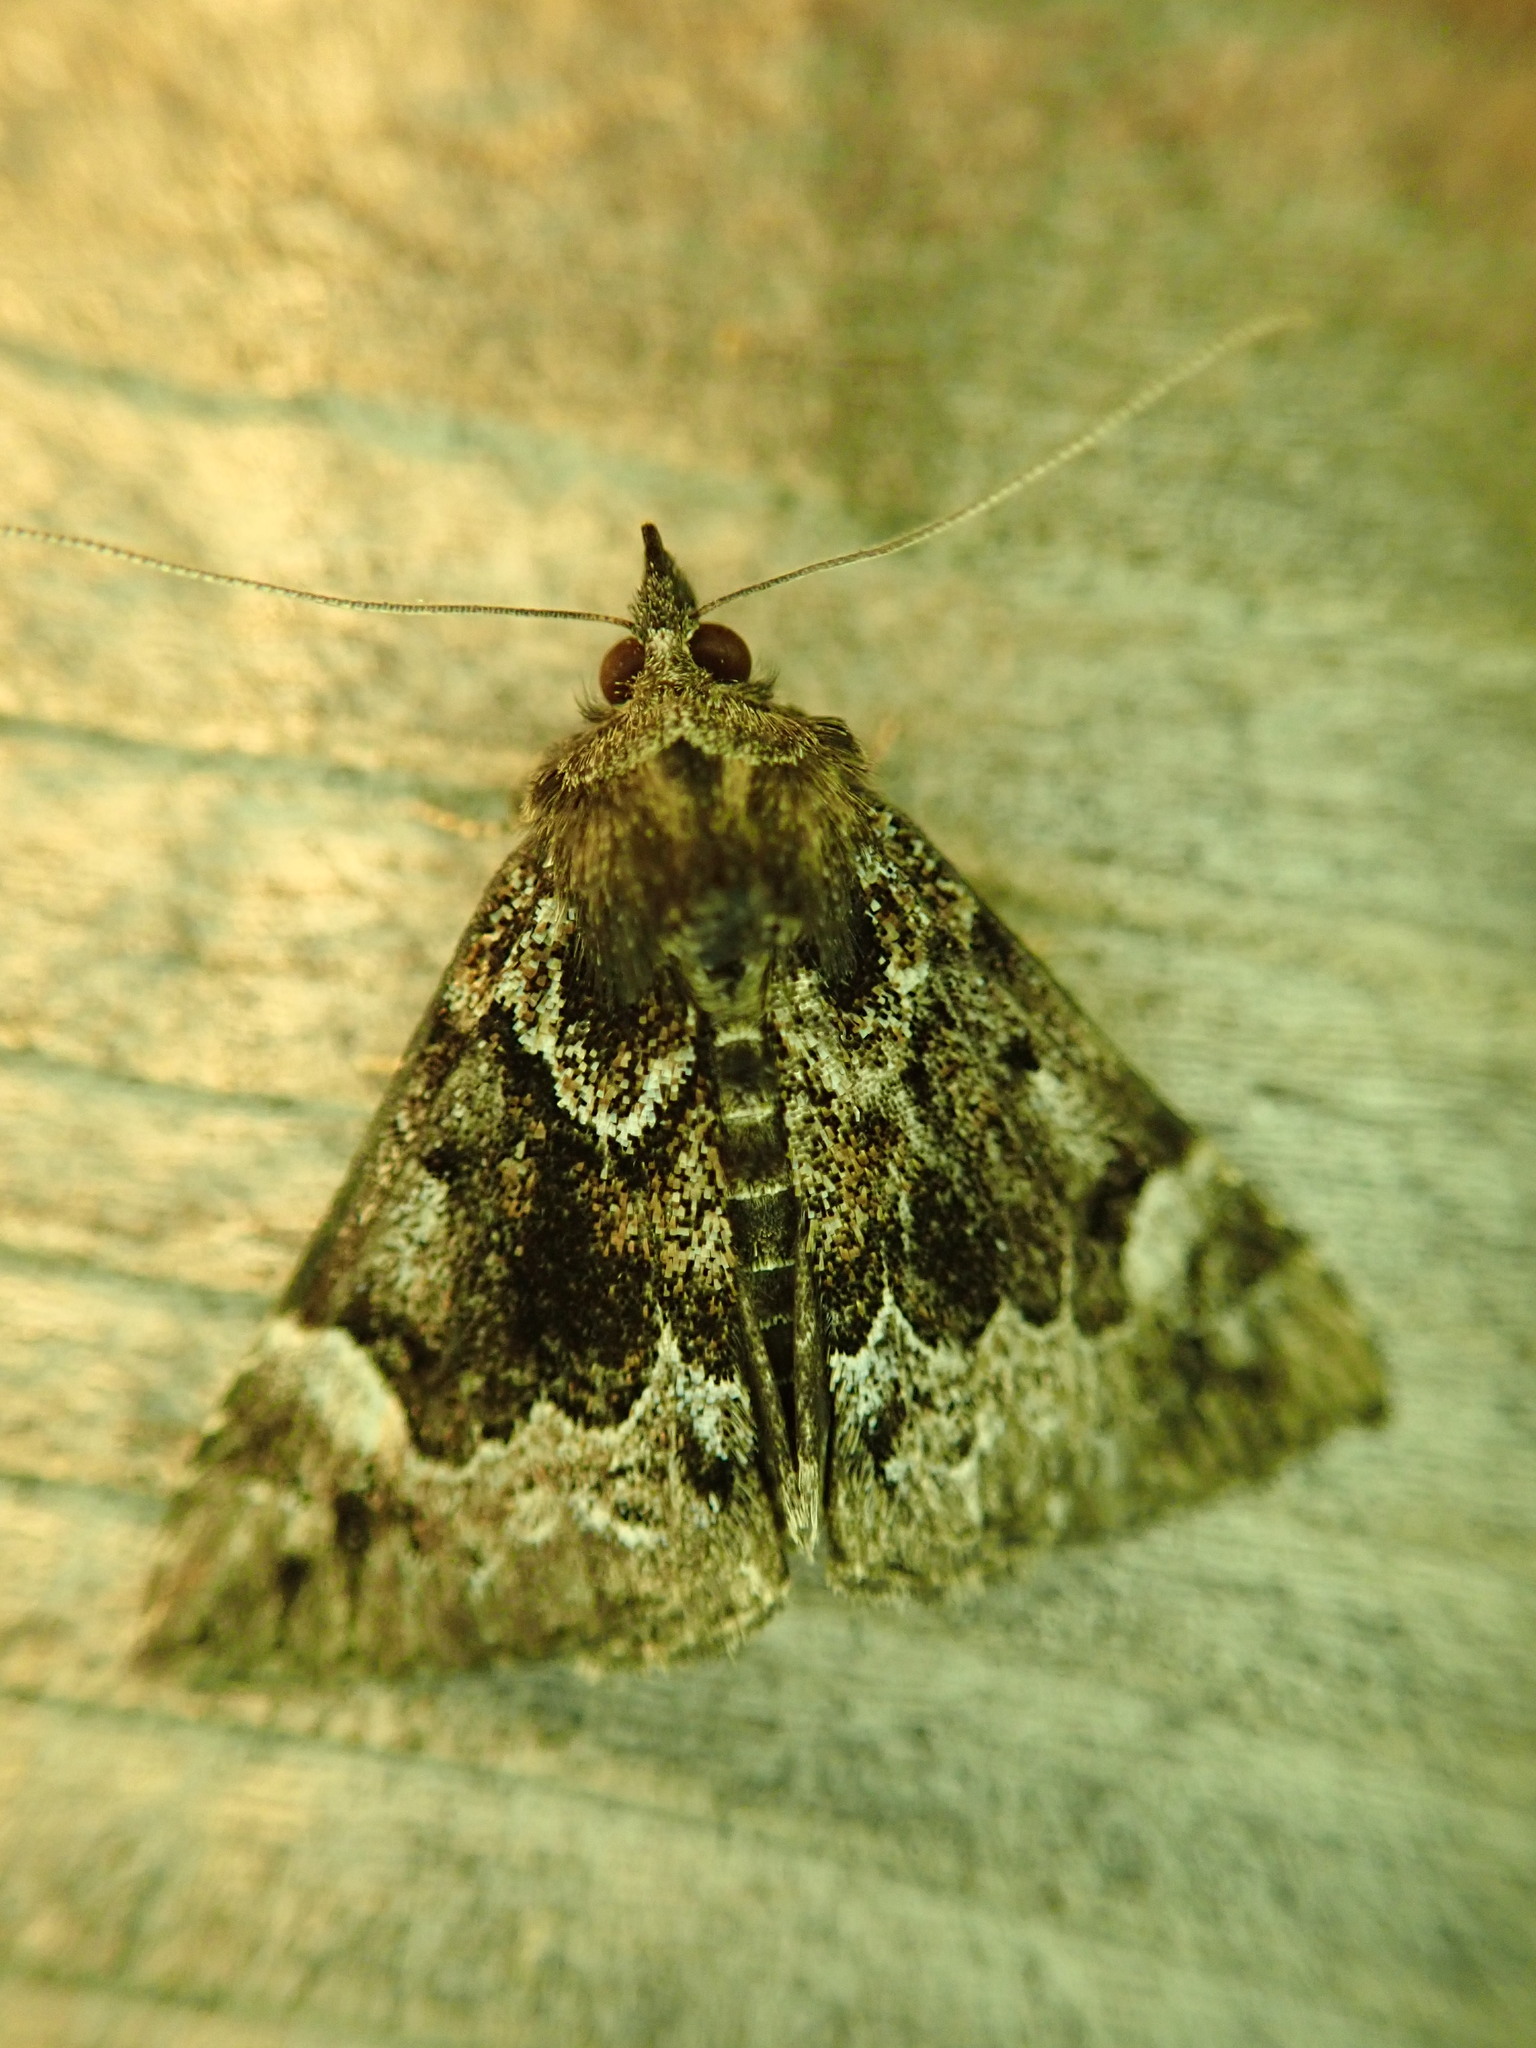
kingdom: Animalia
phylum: Arthropoda
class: Insecta
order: Lepidoptera
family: Erebidae
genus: Hypena
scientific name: Hypena palparia
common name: Mottled bomolocha moth
